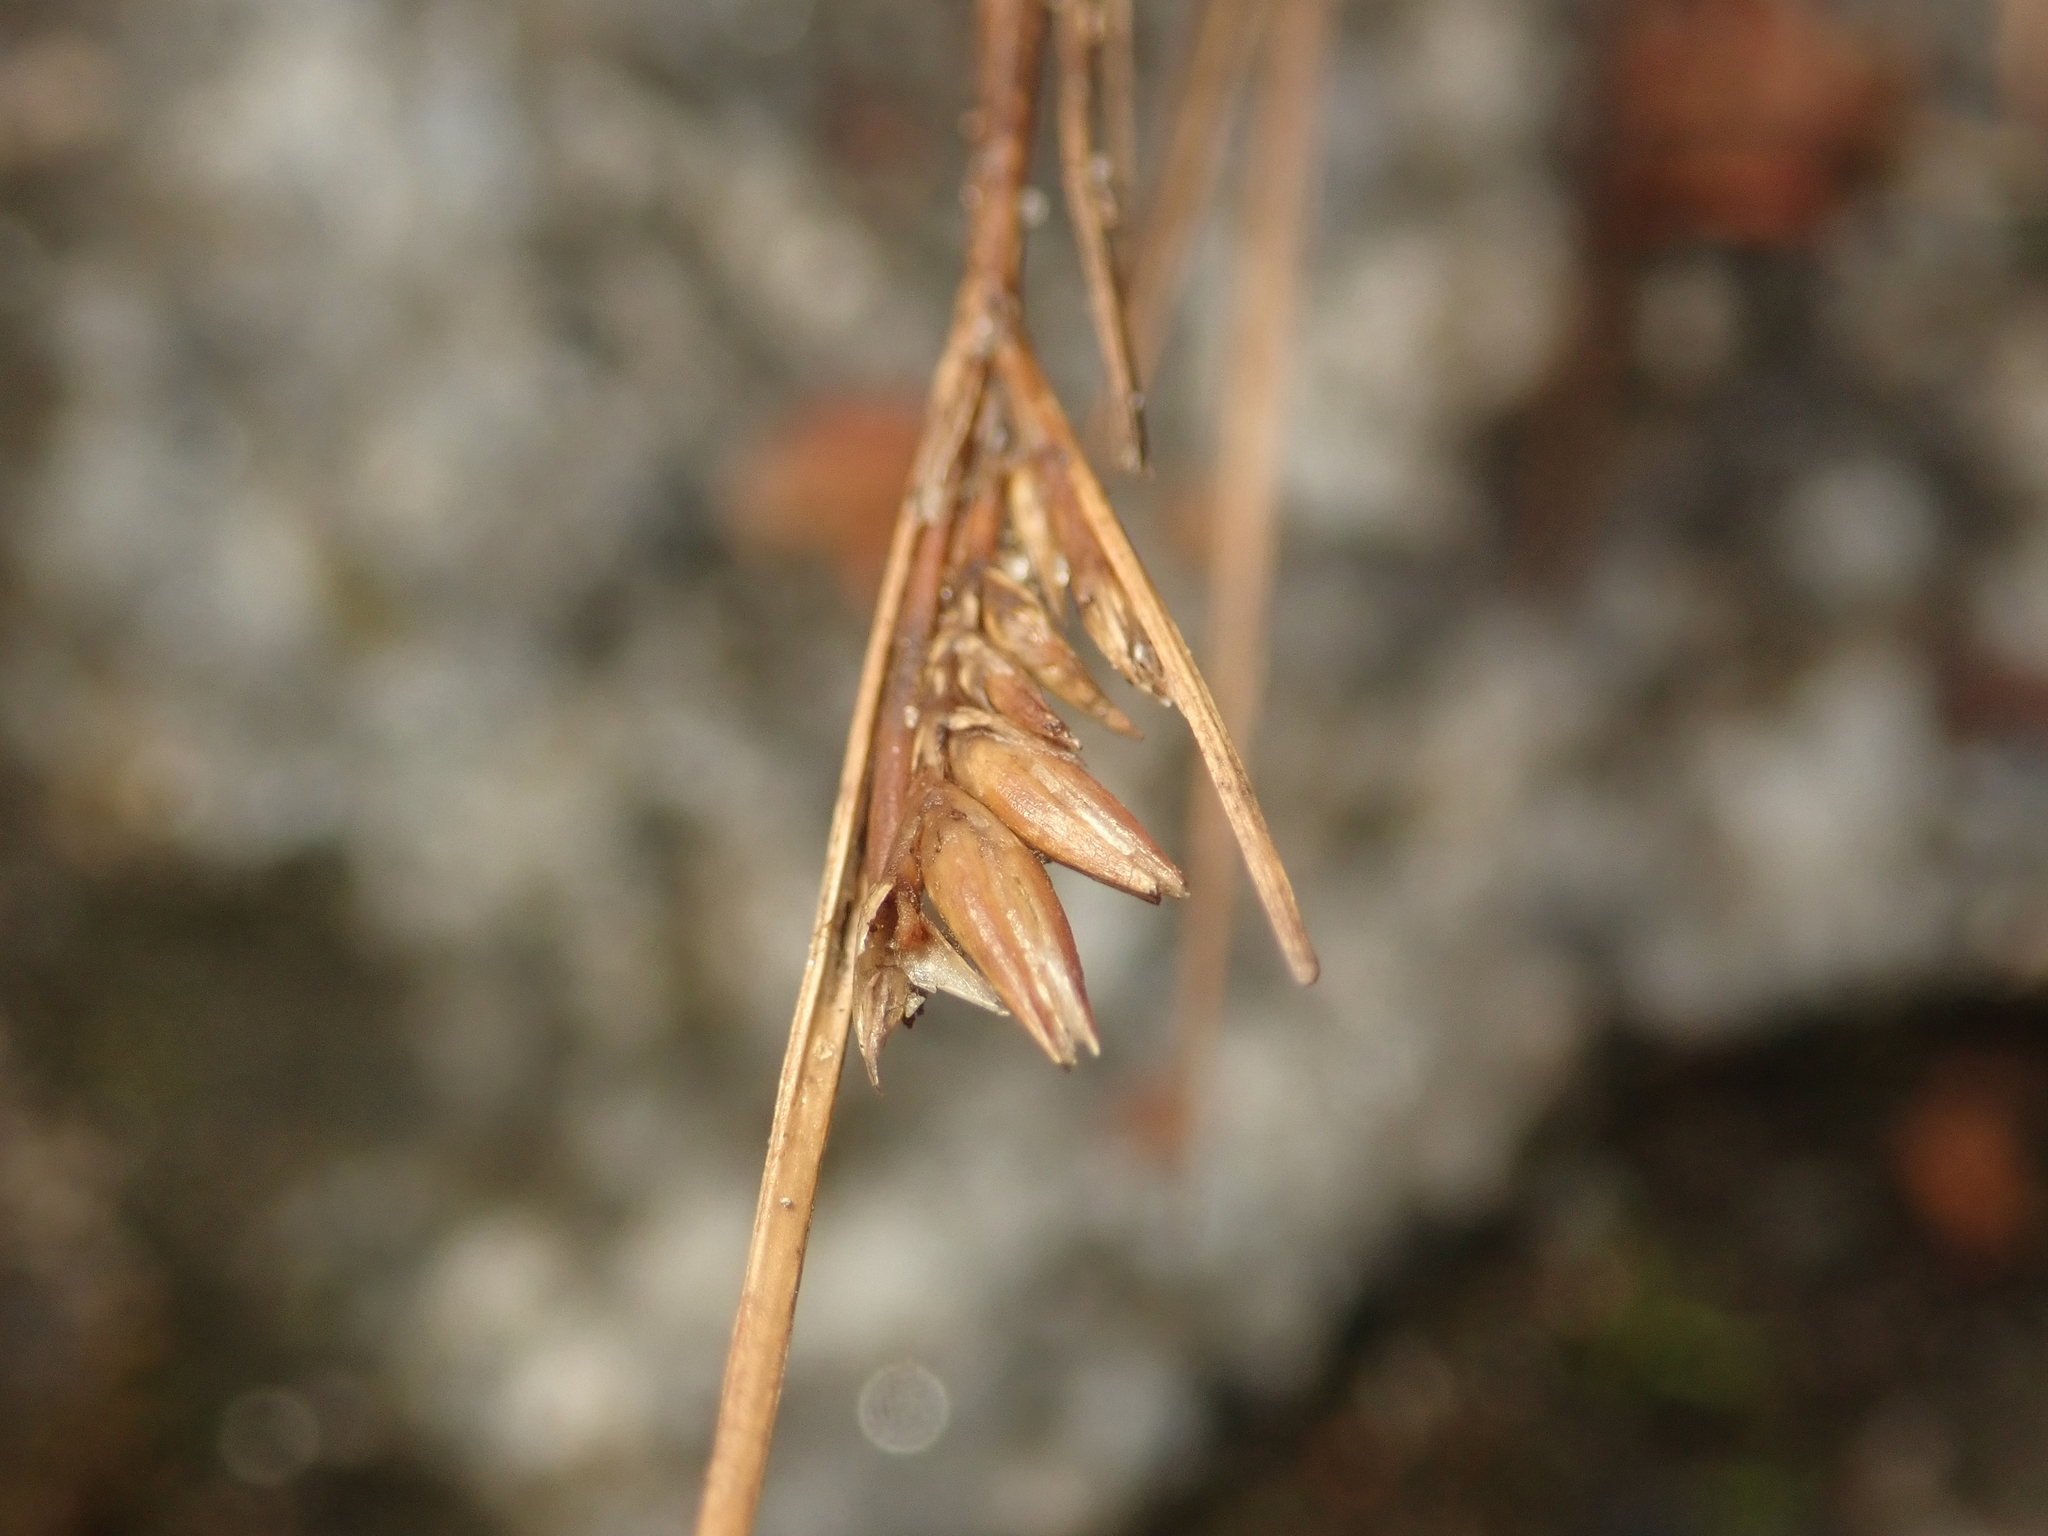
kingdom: Plantae
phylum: Tracheophyta
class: Liliopsida
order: Poales
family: Juncaceae
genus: Juncus
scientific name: Juncus tenuis
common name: Slender rush
